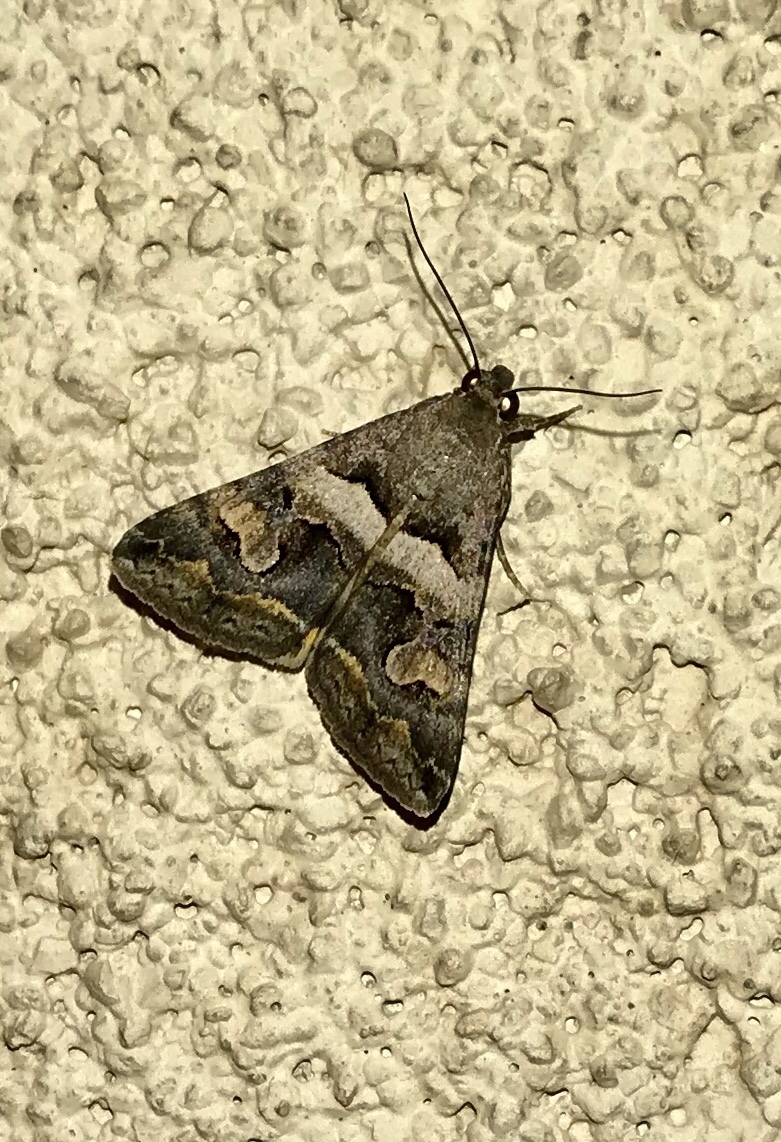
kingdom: Animalia
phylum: Arthropoda
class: Insecta
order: Lepidoptera
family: Erebidae
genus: Bulia
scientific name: Bulia deducta
